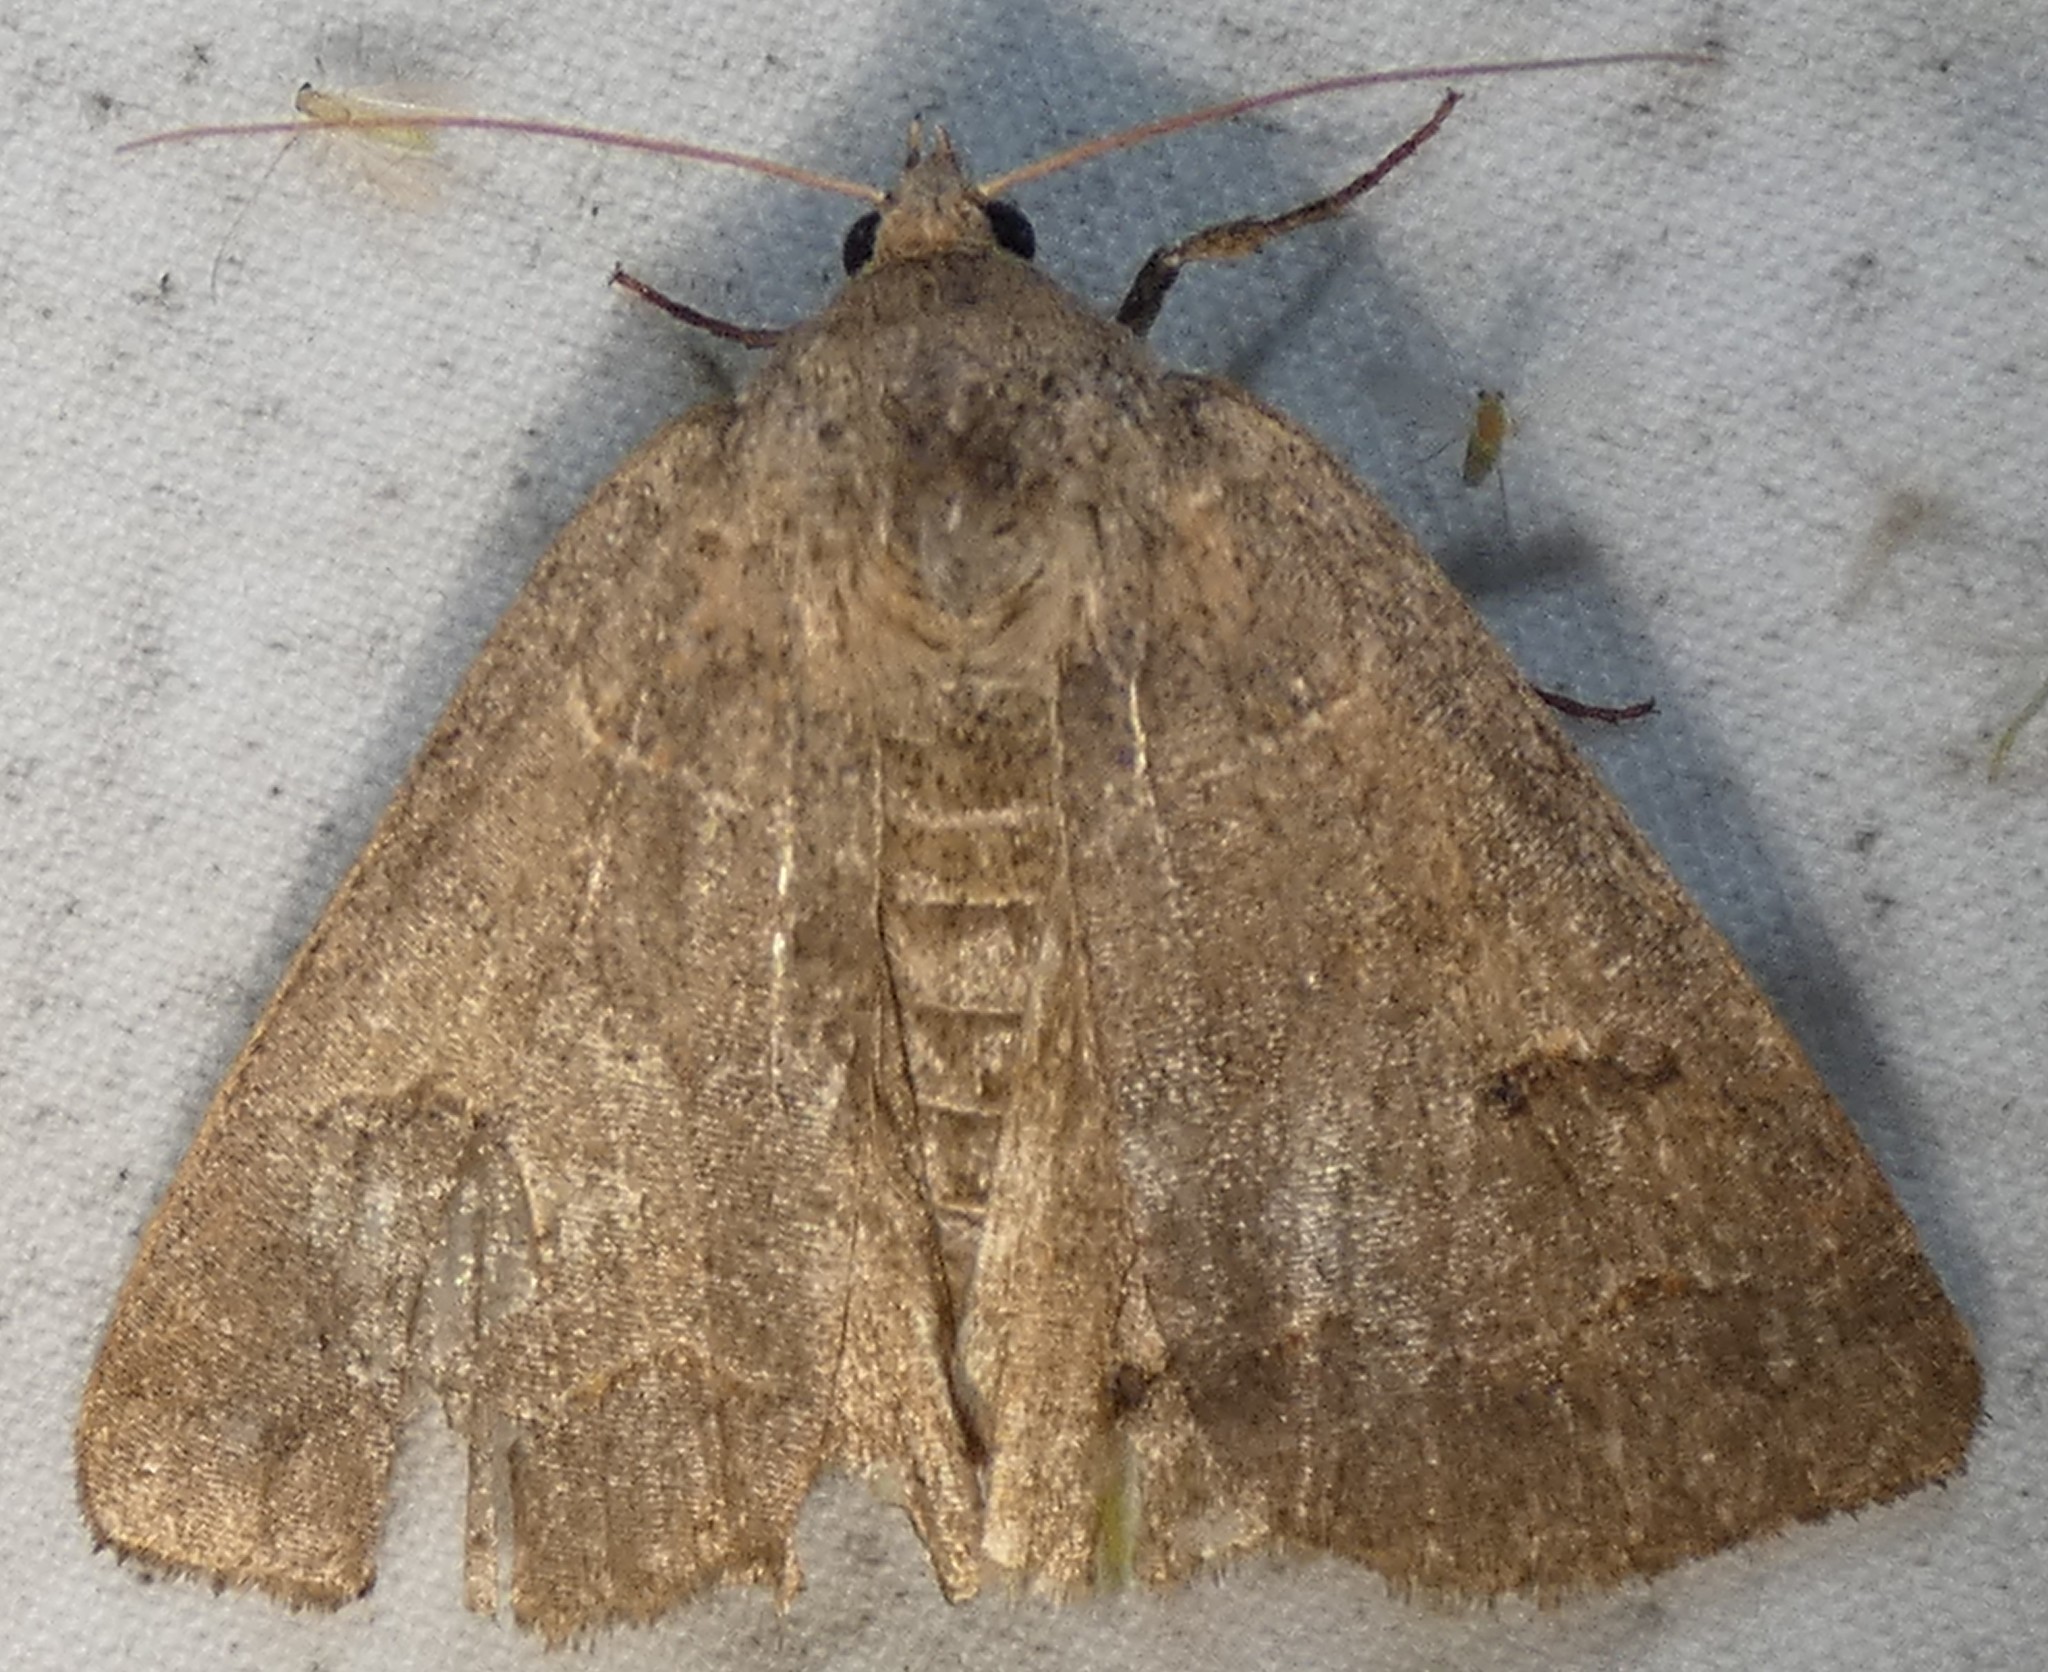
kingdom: Animalia
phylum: Arthropoda
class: Insecta
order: Lepidoptera
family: Erebidae
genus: Phoberia
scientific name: Phoberia atomaris
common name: Common oak moth
